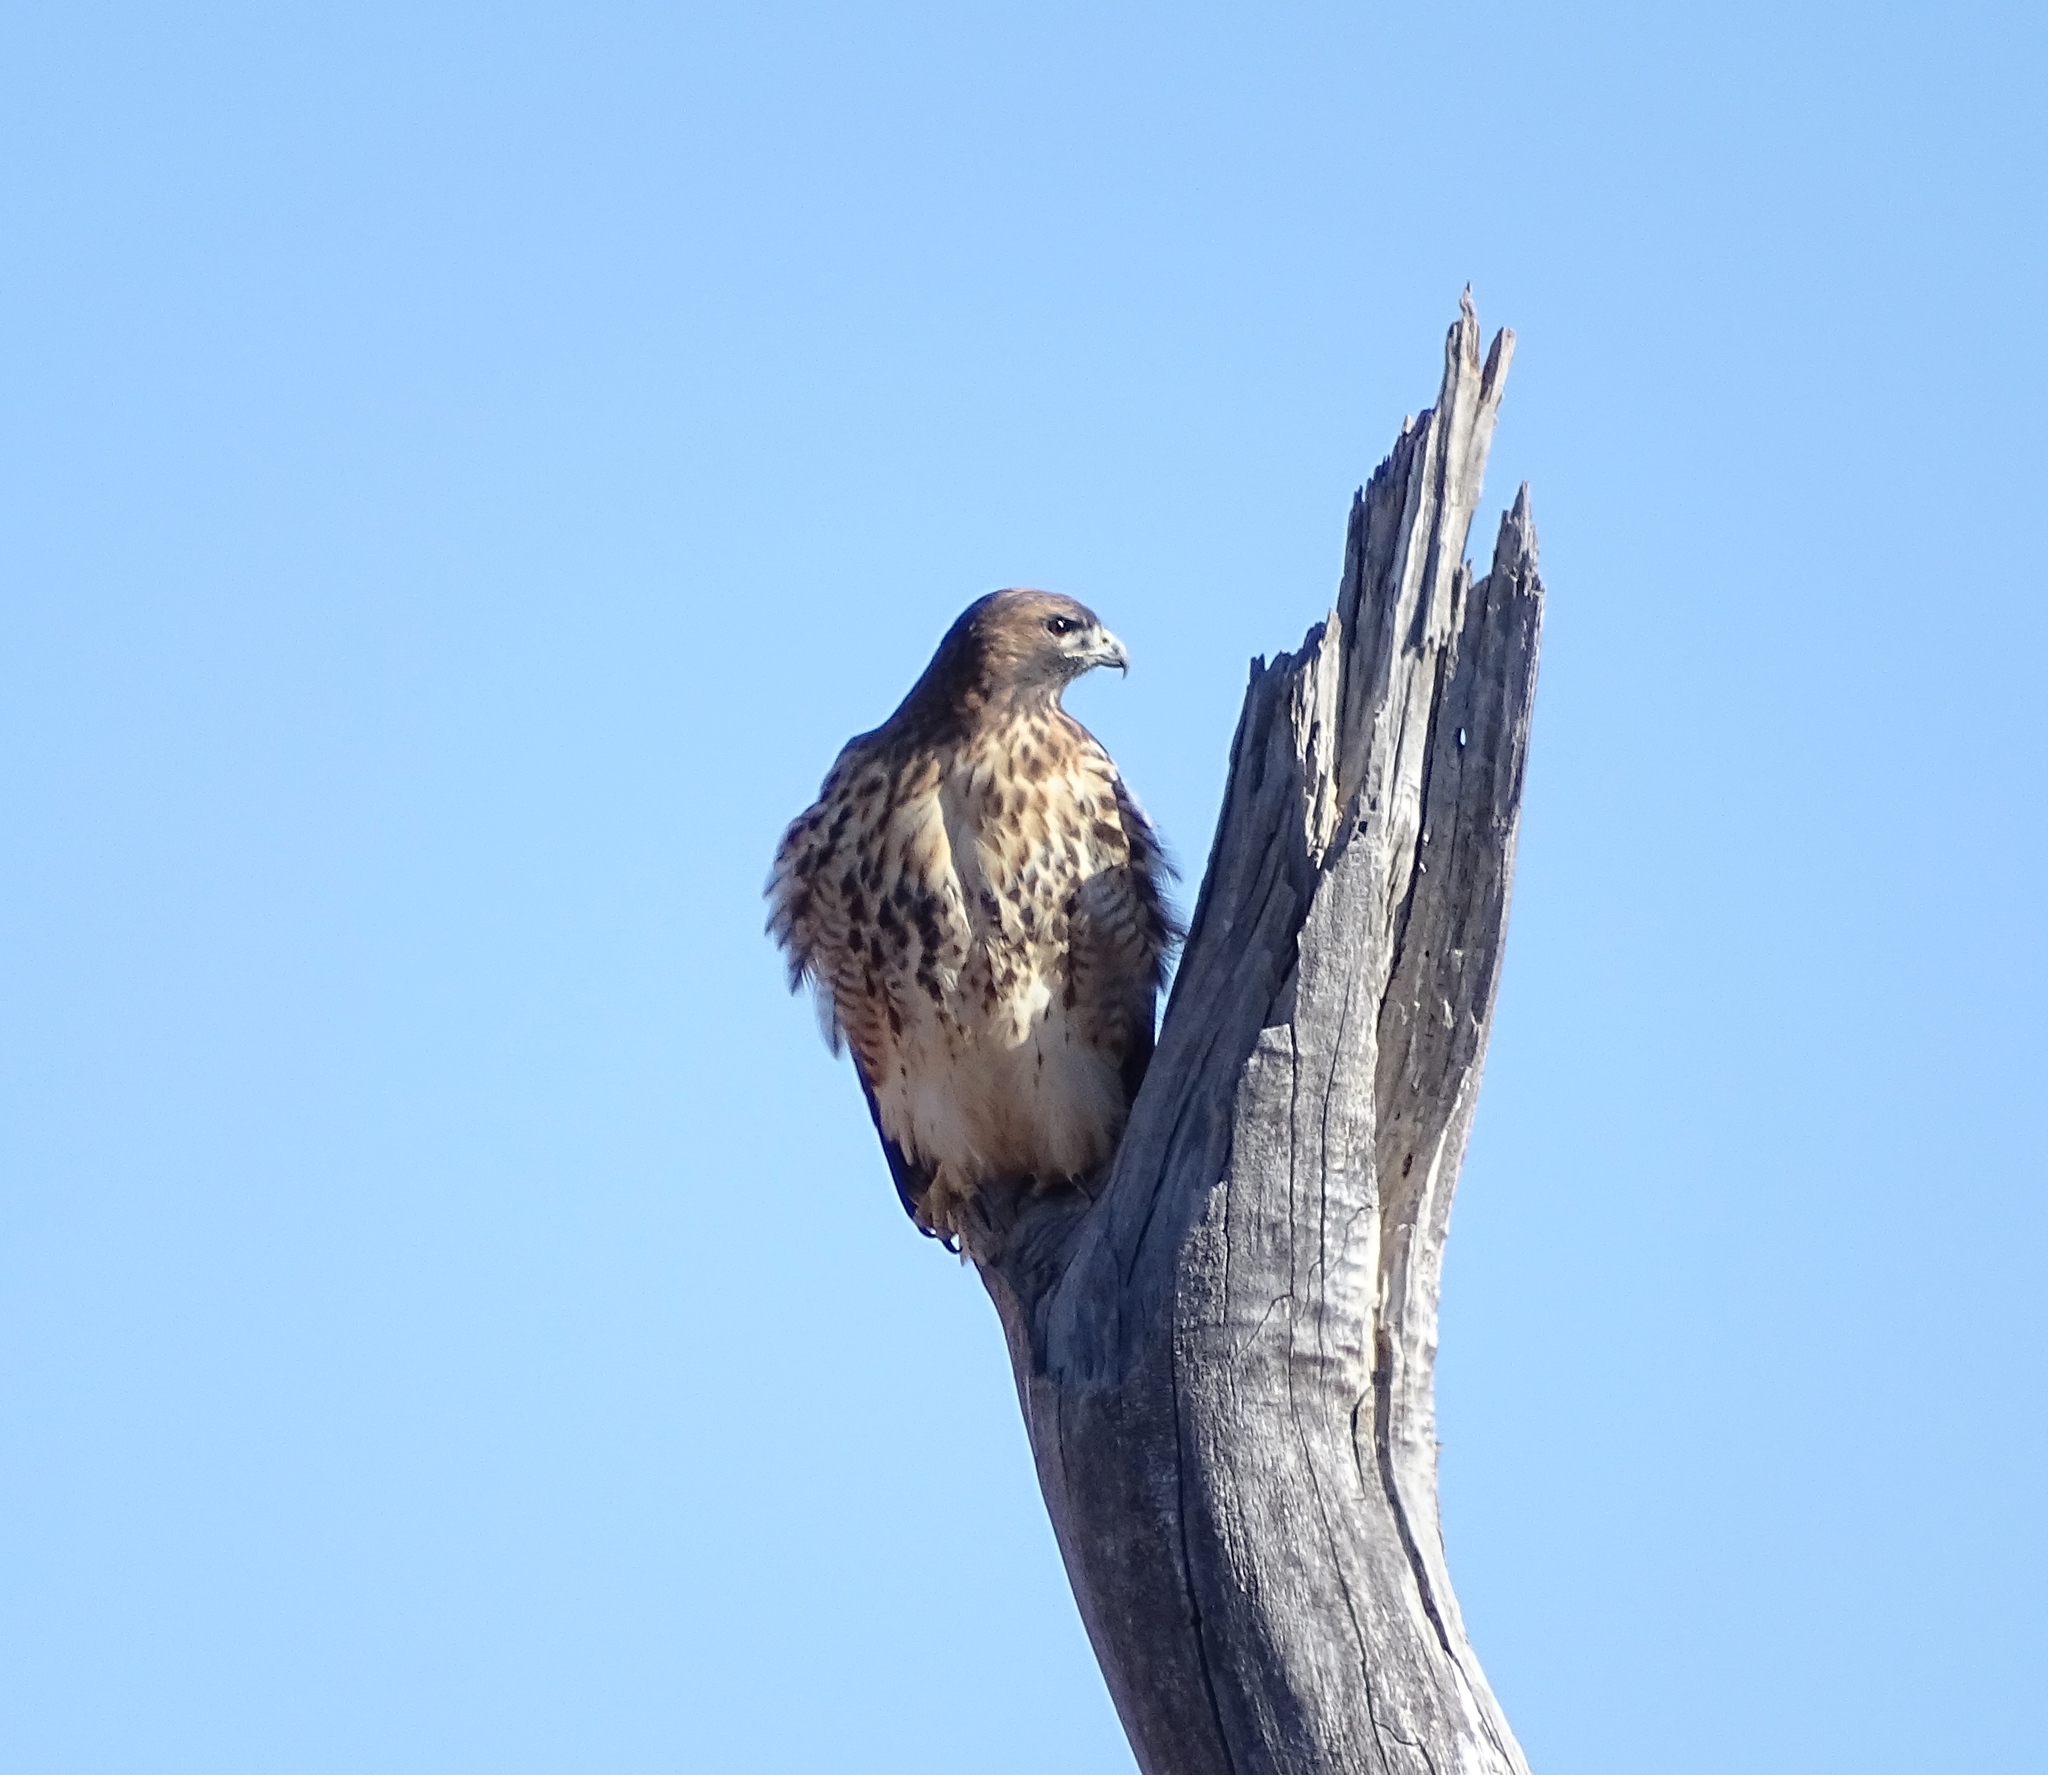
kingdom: Animalia
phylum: Chordata
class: Aves
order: Accipitriformes
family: Accipitridae
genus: Buteo
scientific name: Buteo jamaicensis
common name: Red-tailed hawk
